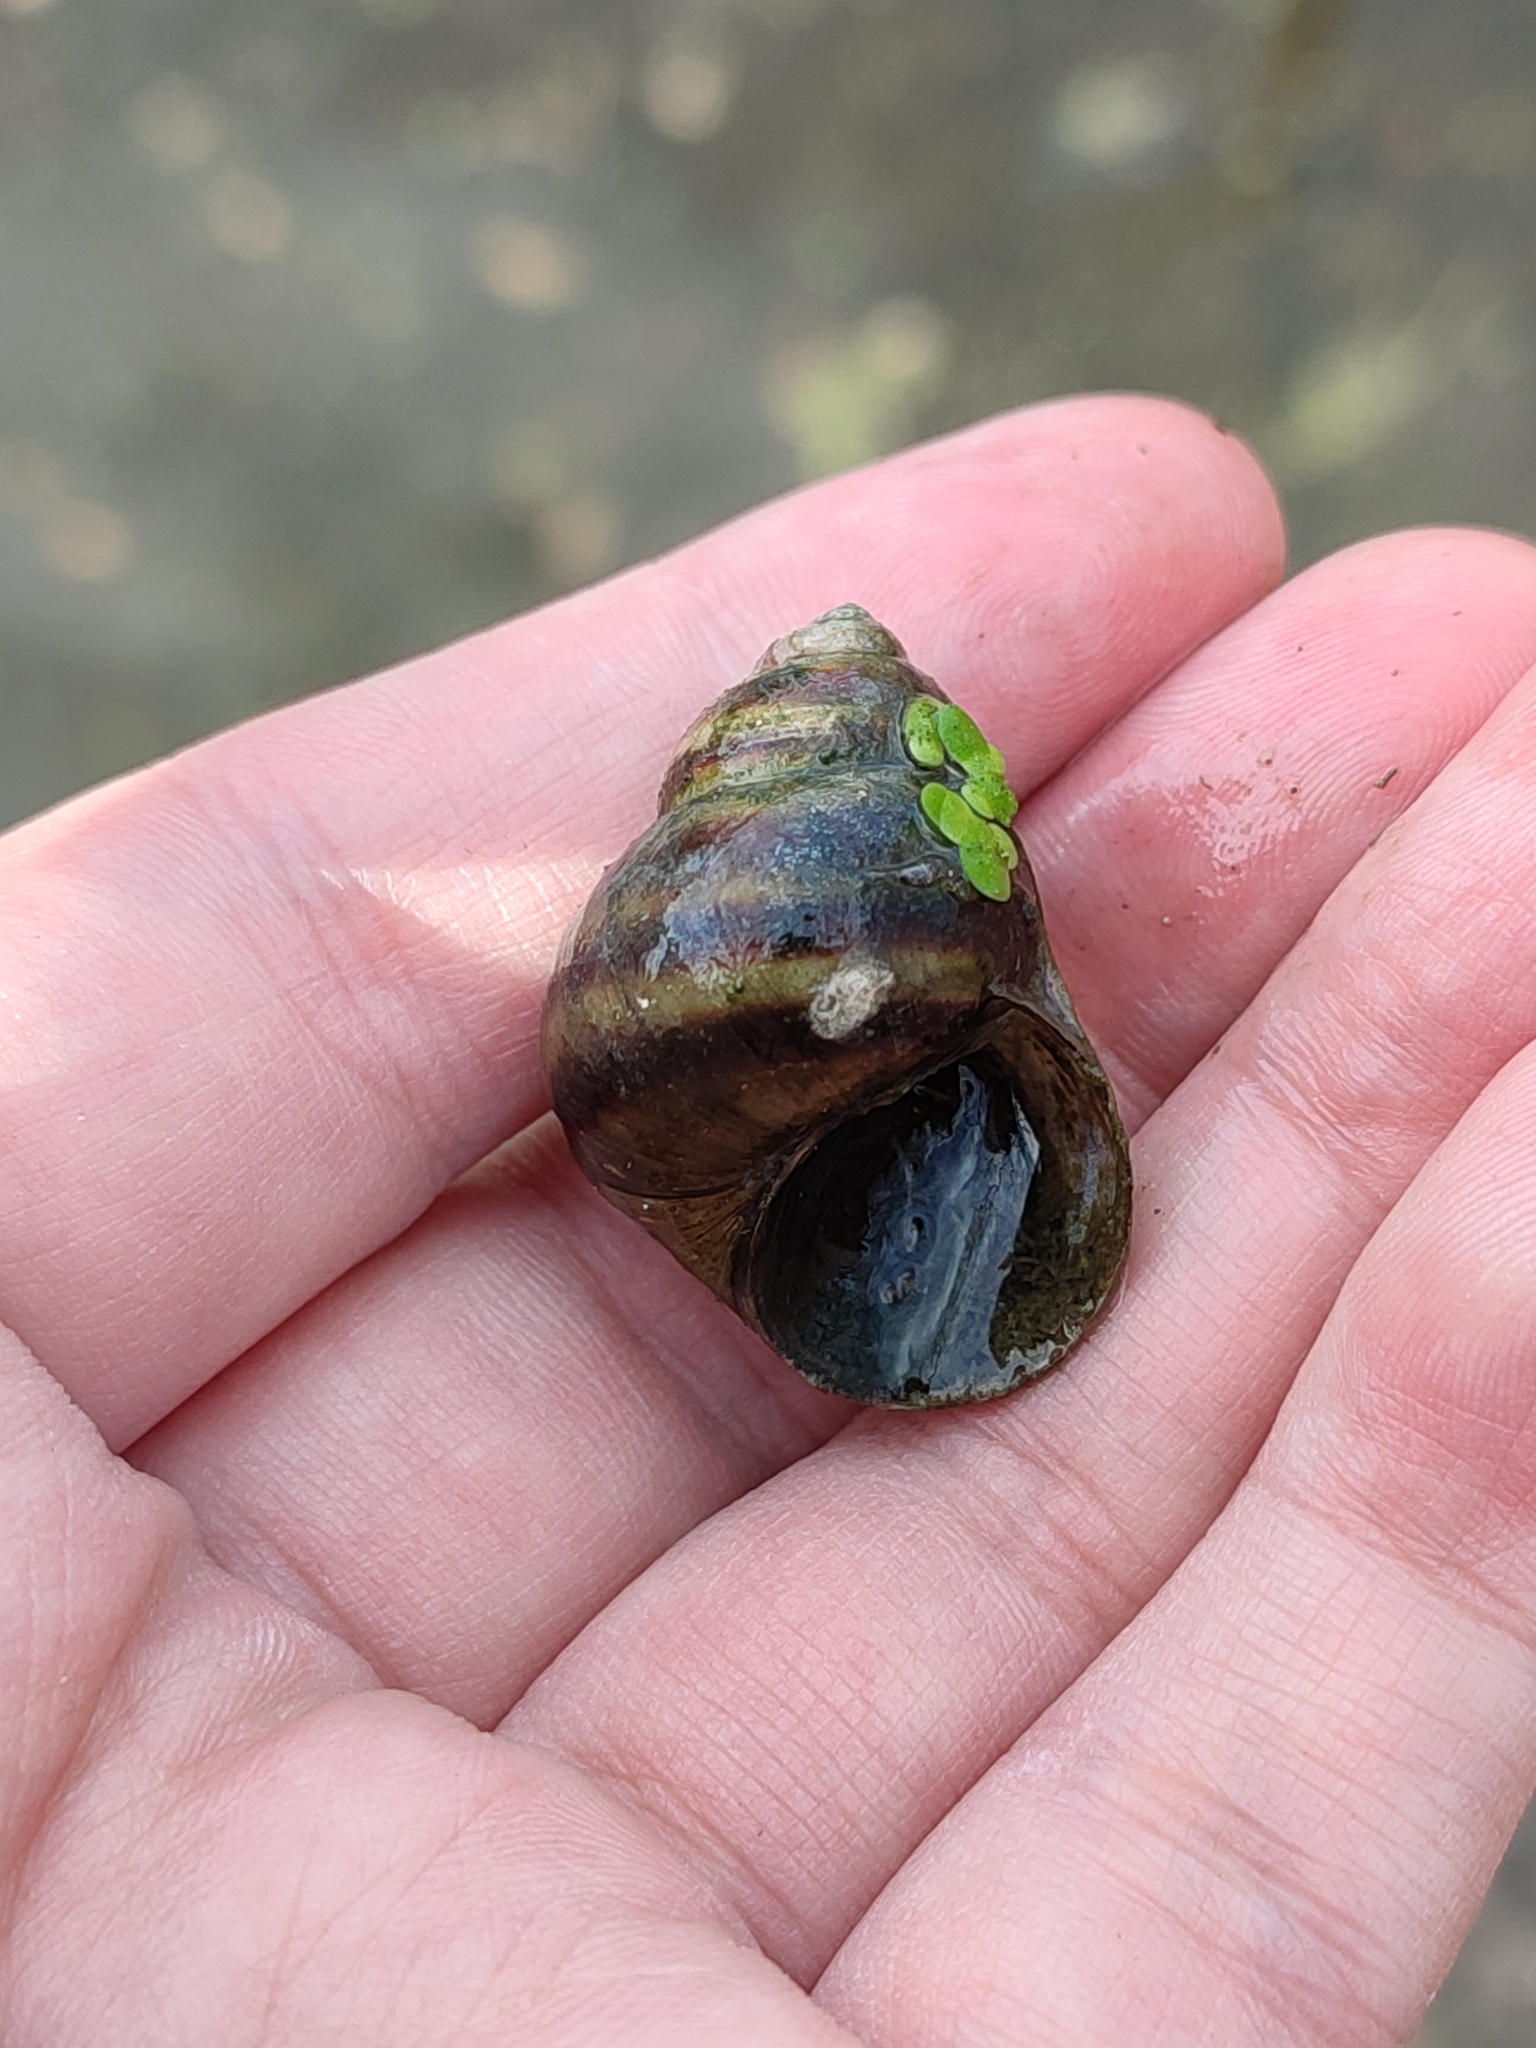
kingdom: Animalia
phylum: Mollusca
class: Gastropoda
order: Architaenioglossa
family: Viviparidae
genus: Viviparus
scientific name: Viviparus viviparus
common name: River snail
